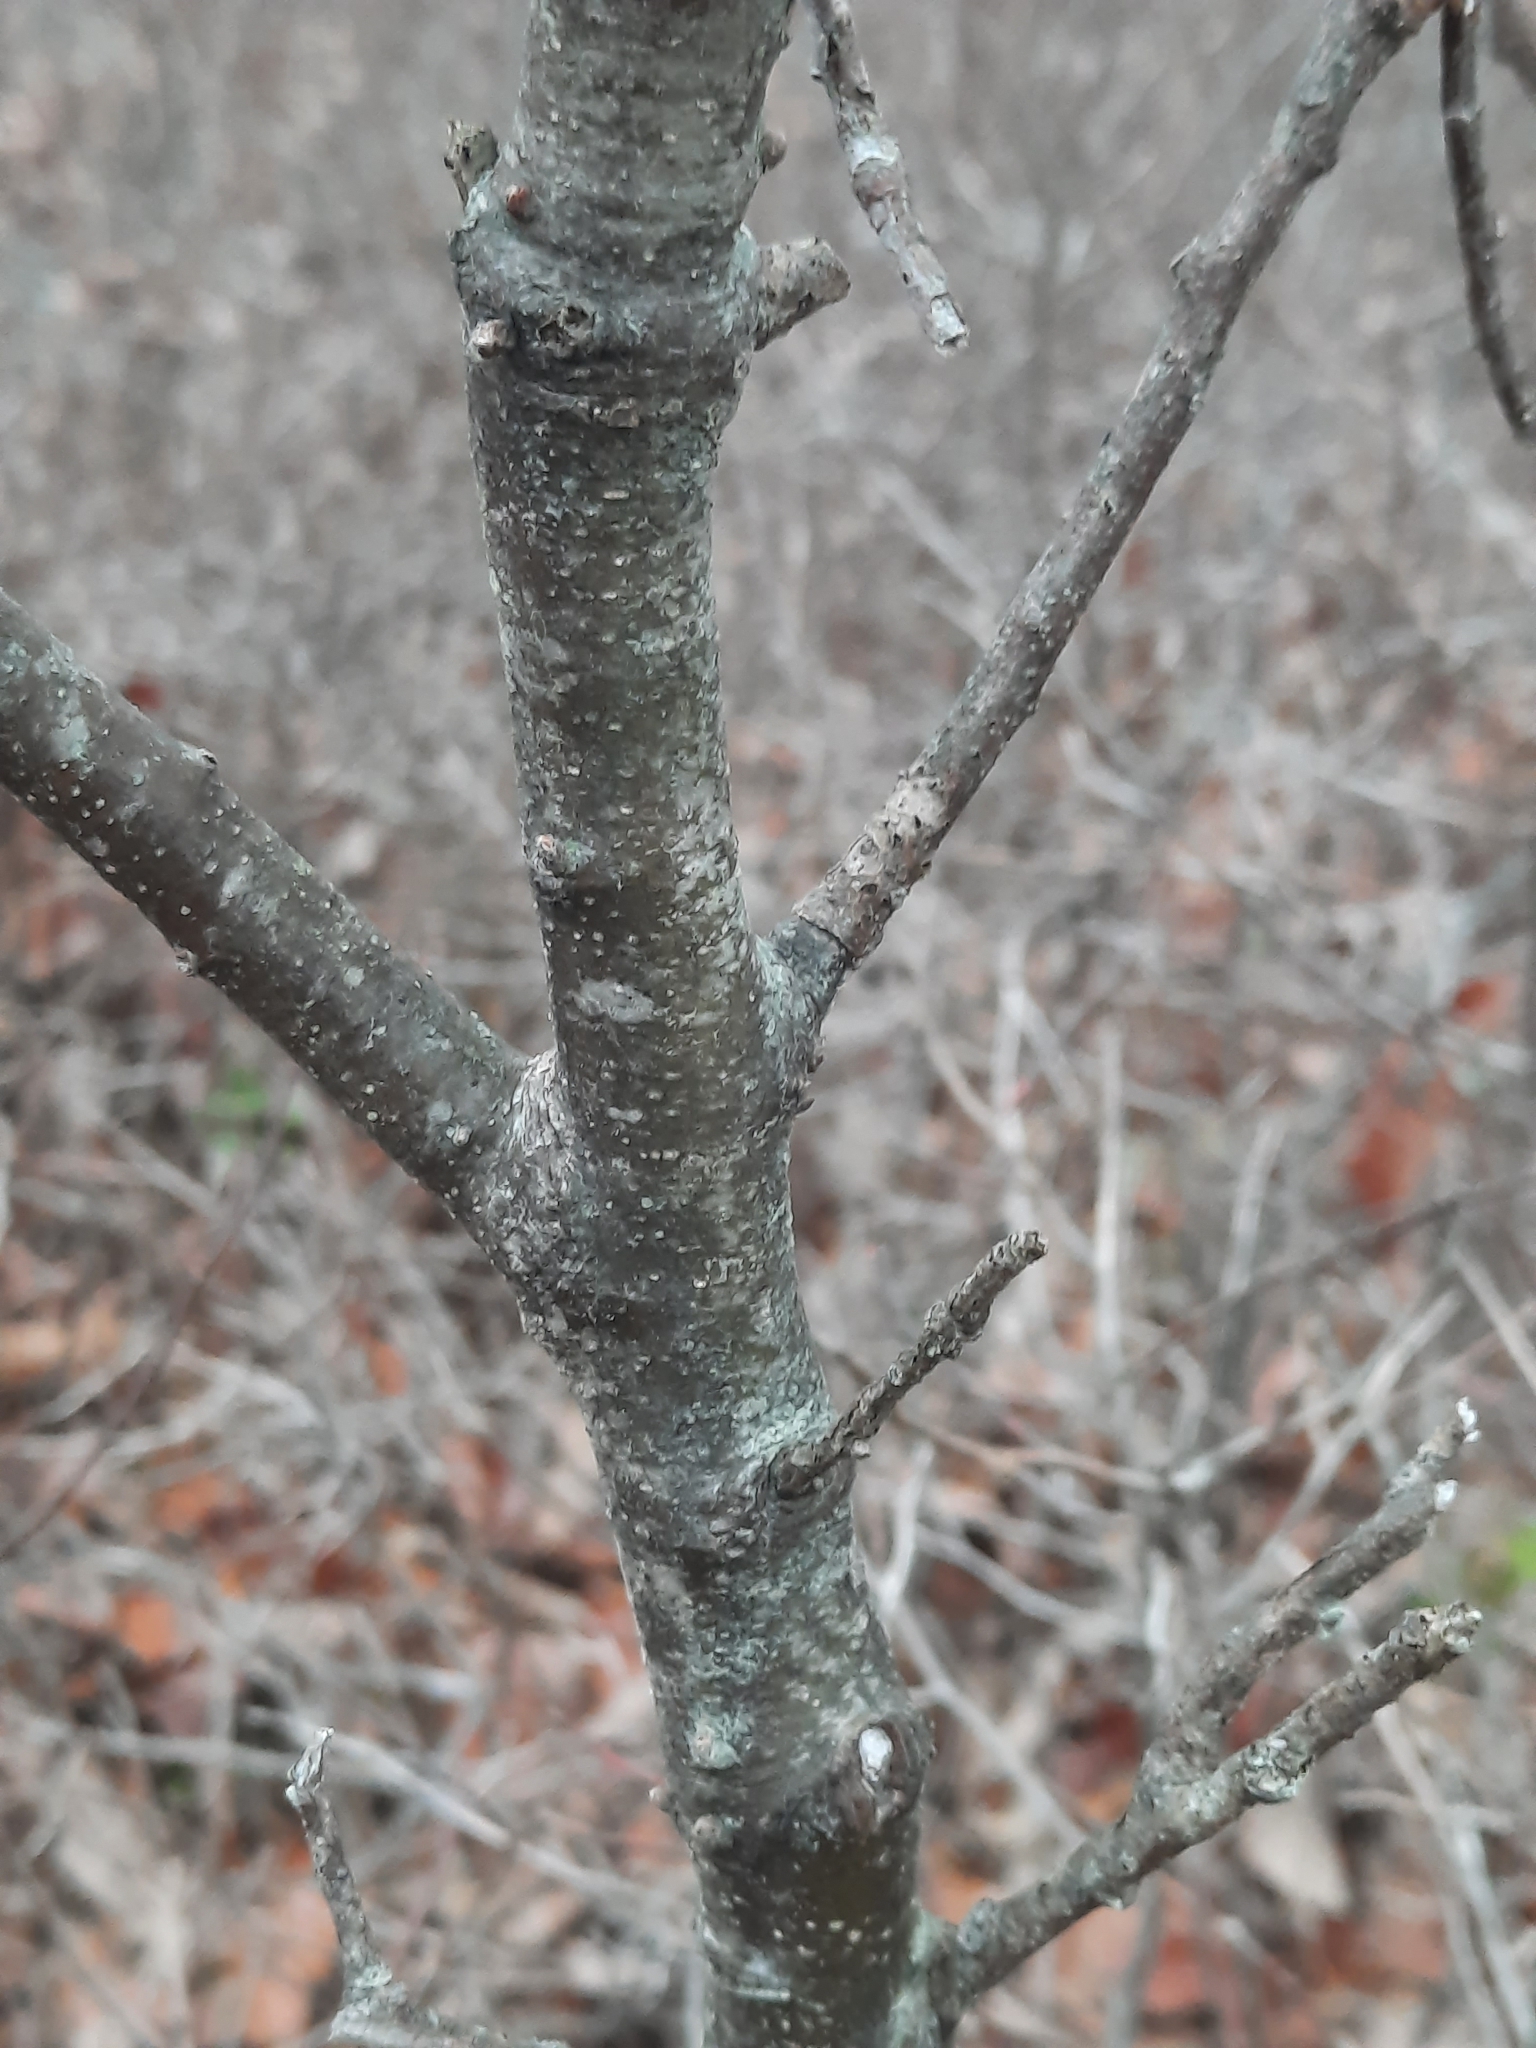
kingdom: Plantae
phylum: Tracheophyta
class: Magnoliopsida
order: Fagales
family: Fagaceae
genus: Quercus
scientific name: Quercus rubra
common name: Red oak
